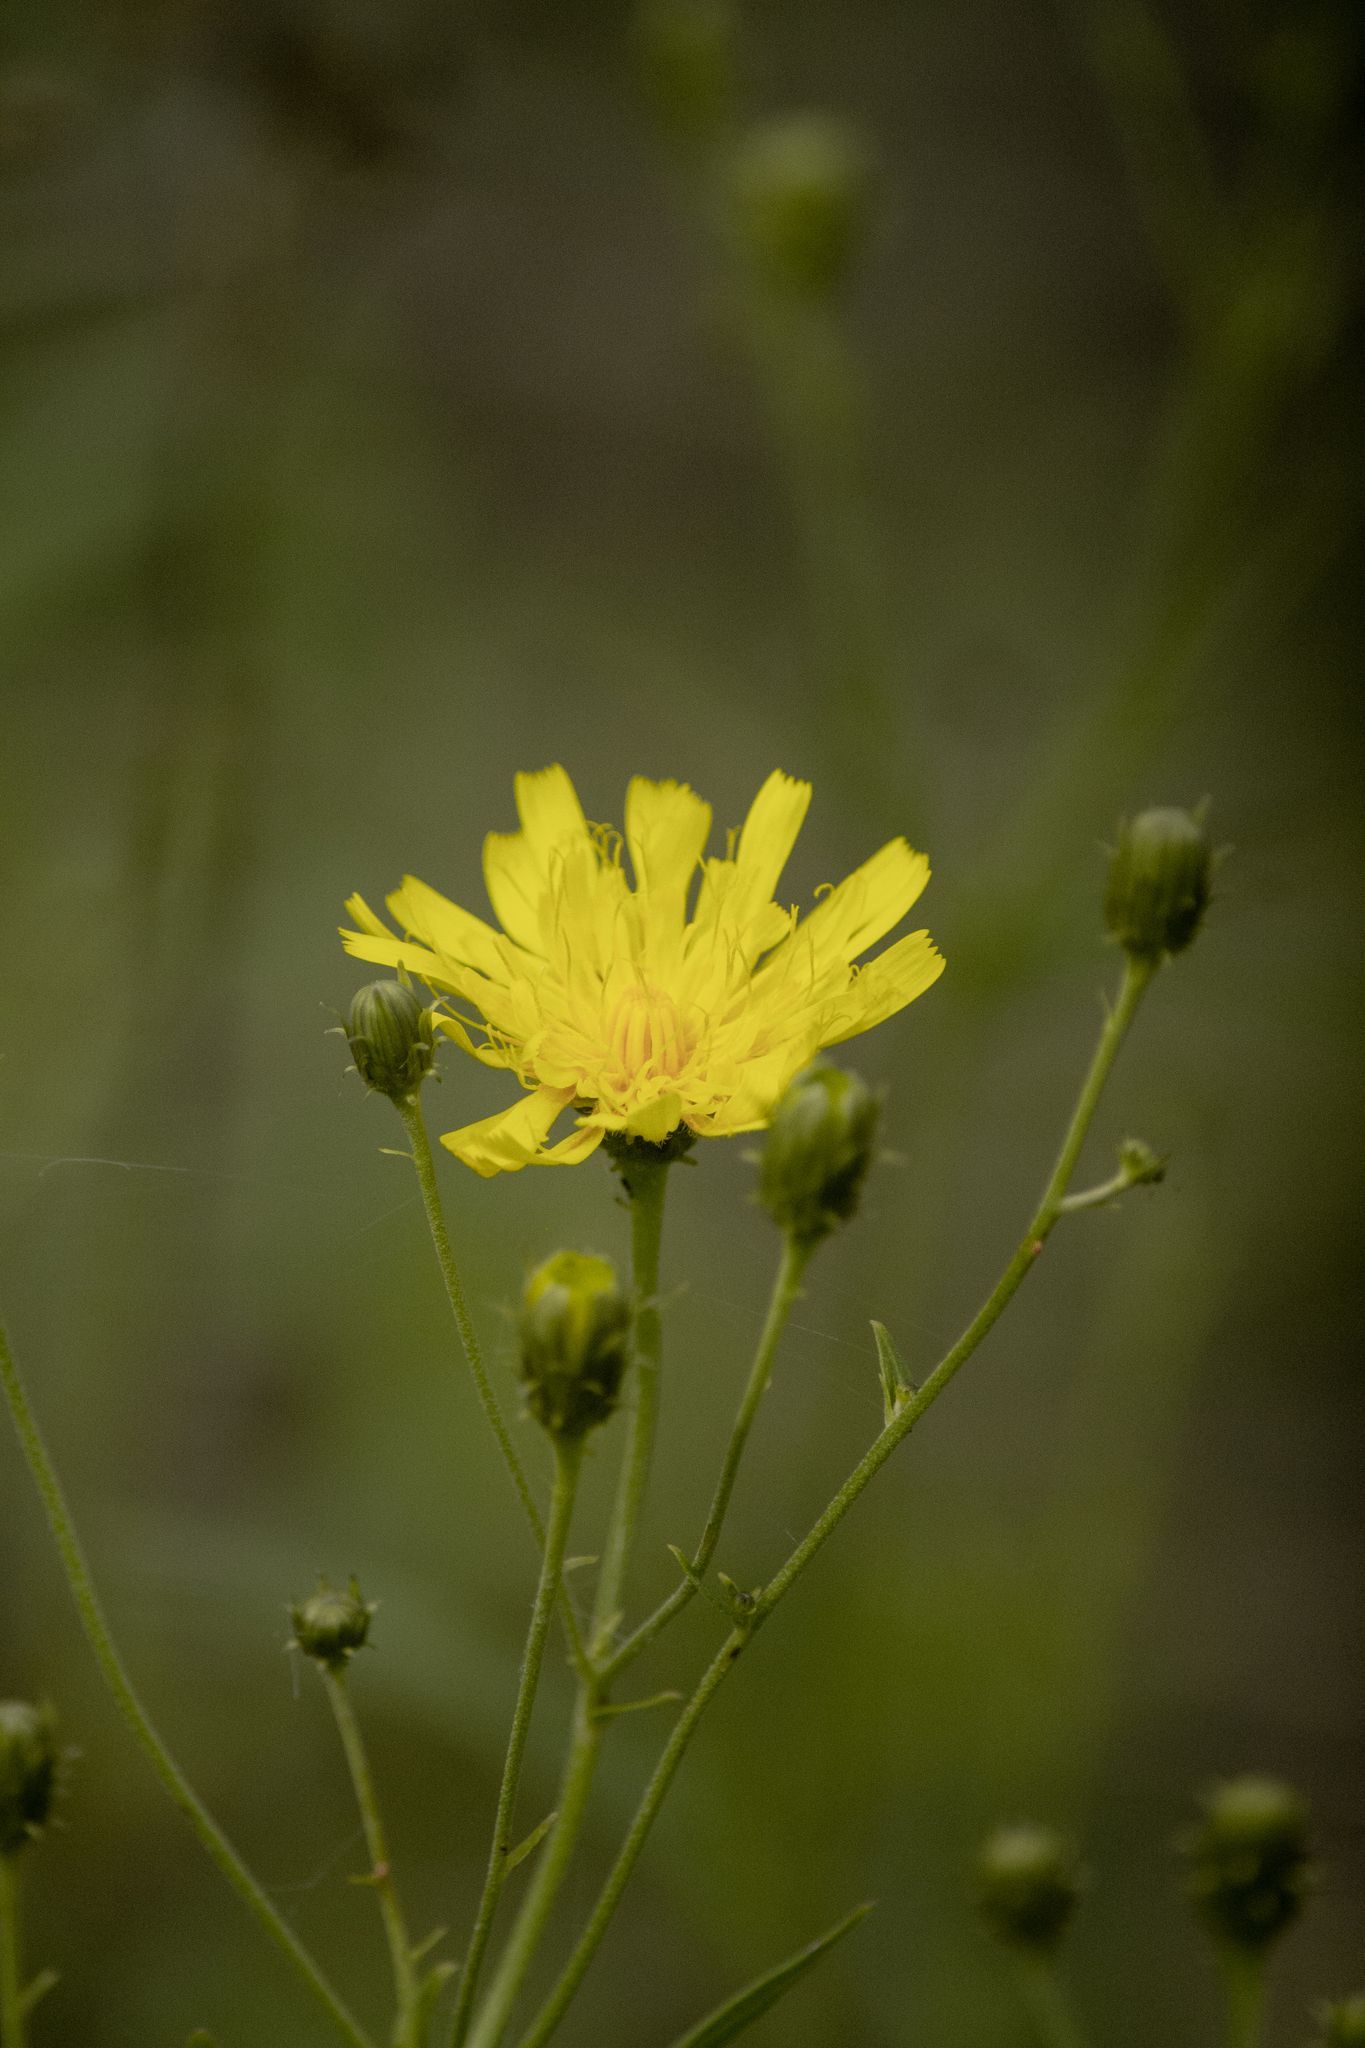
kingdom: Plantae
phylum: Tracheophyta
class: Magnoliopsida
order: Asterales
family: Asteraceae
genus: Hieracium
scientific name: Hieracium umbellatum
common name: Northern hawkweed
